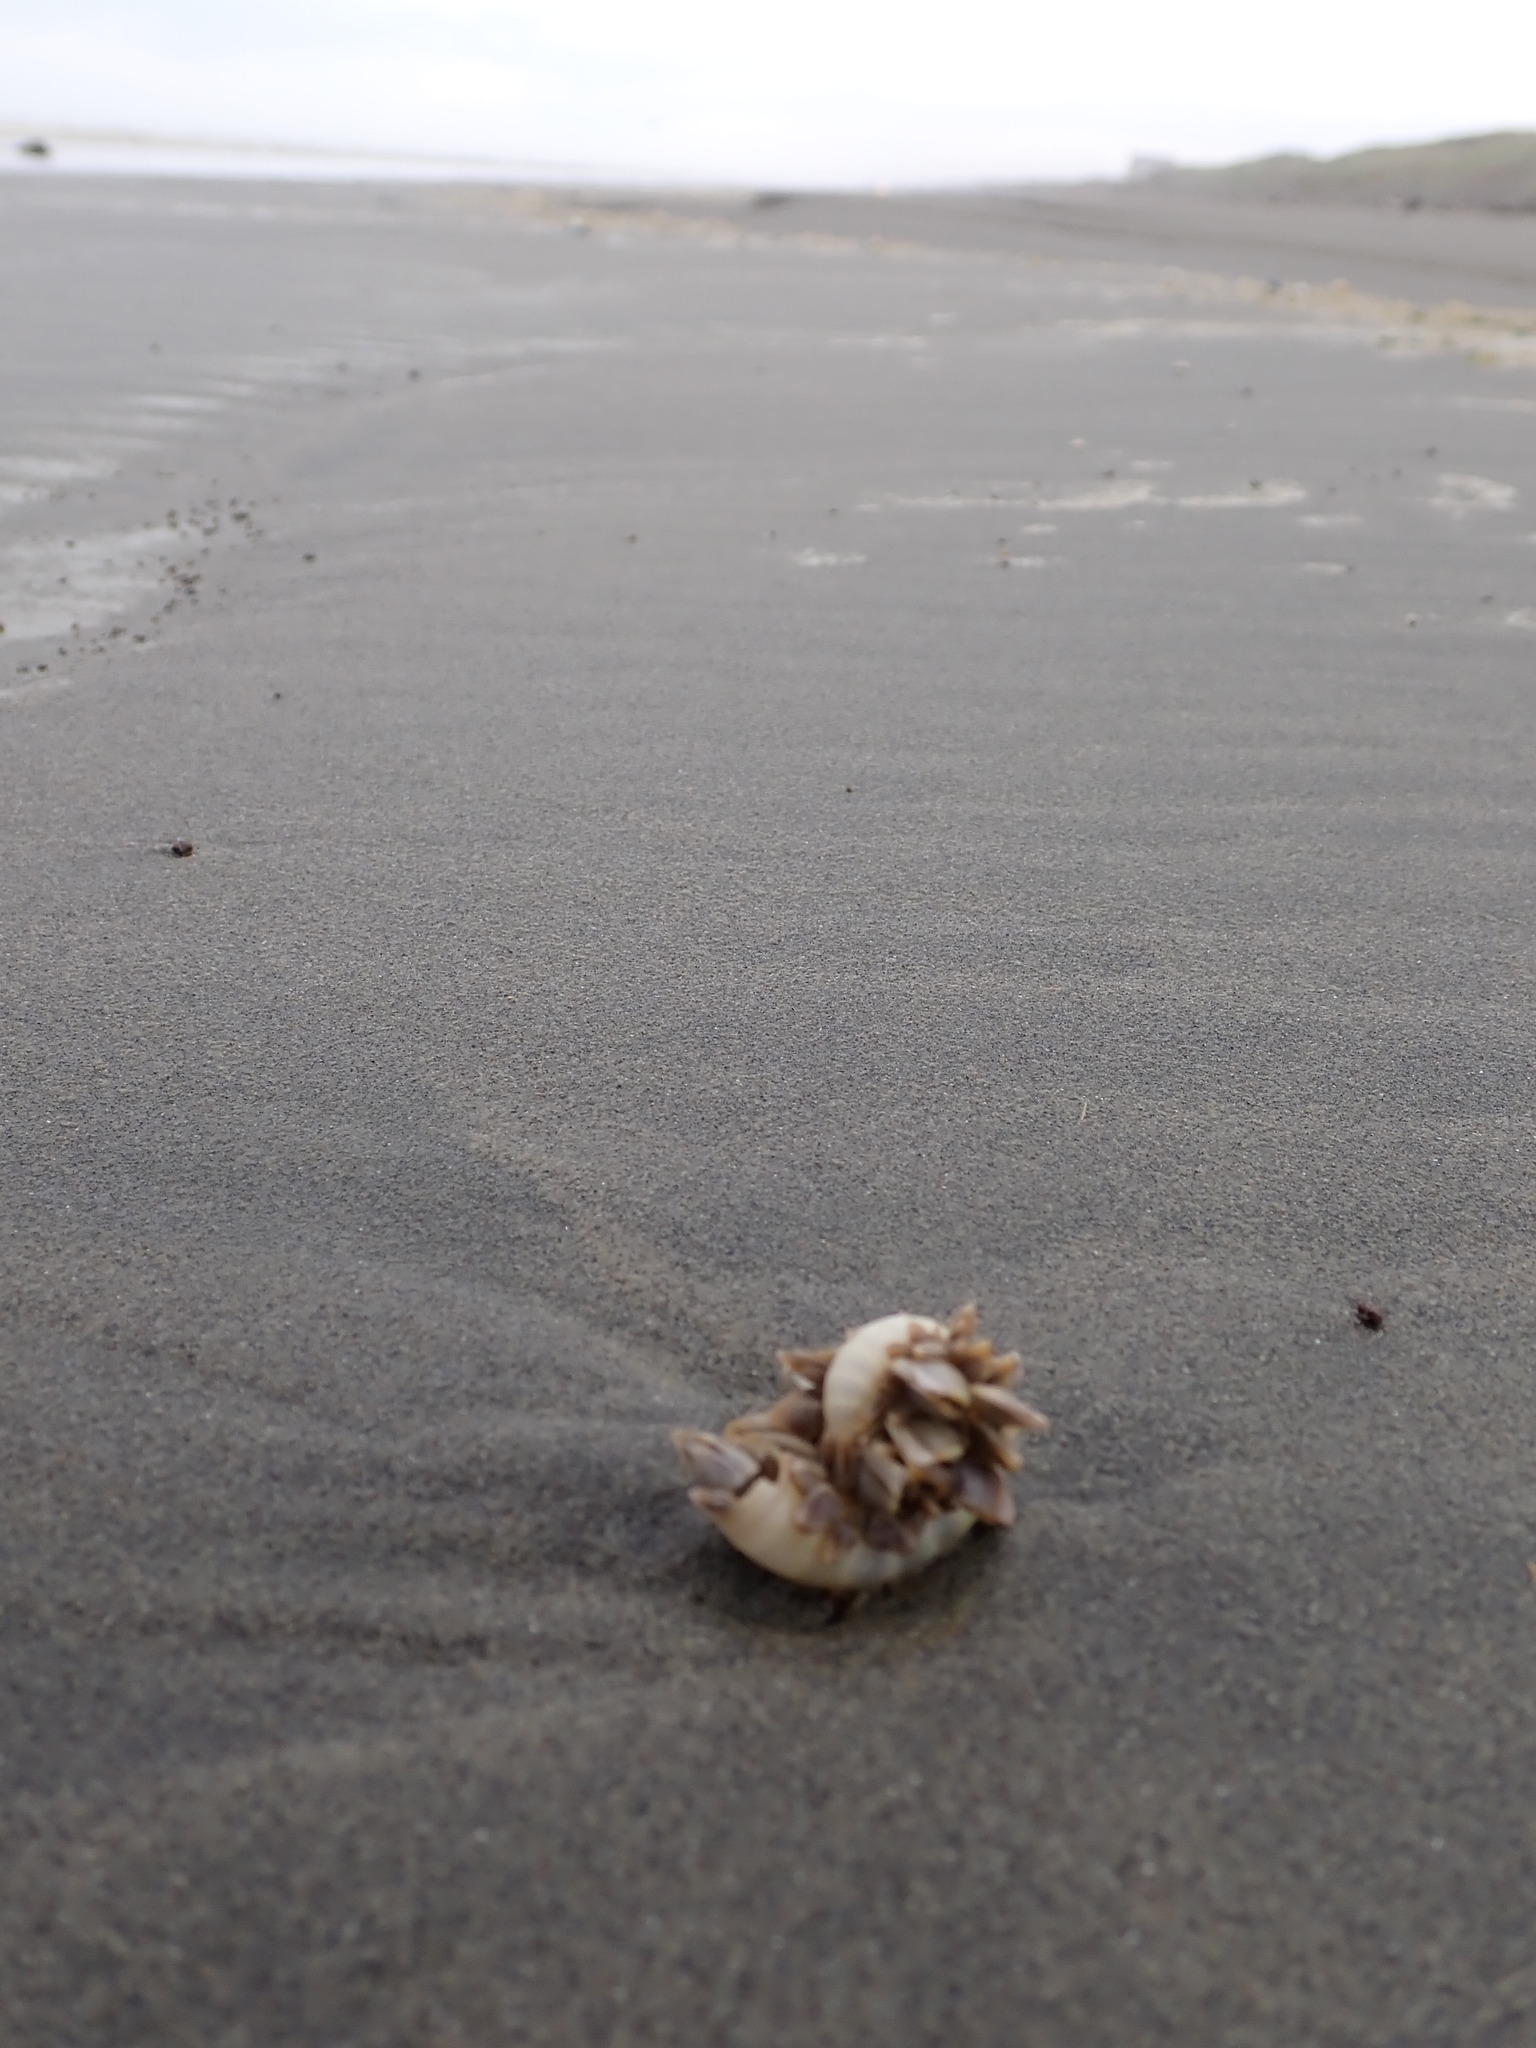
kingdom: Animalia
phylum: Mollusca
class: Cephalopoda
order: Spirulida
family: Spirulidae
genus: Spirula
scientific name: Spirula spirula
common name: Ram's horn squid
